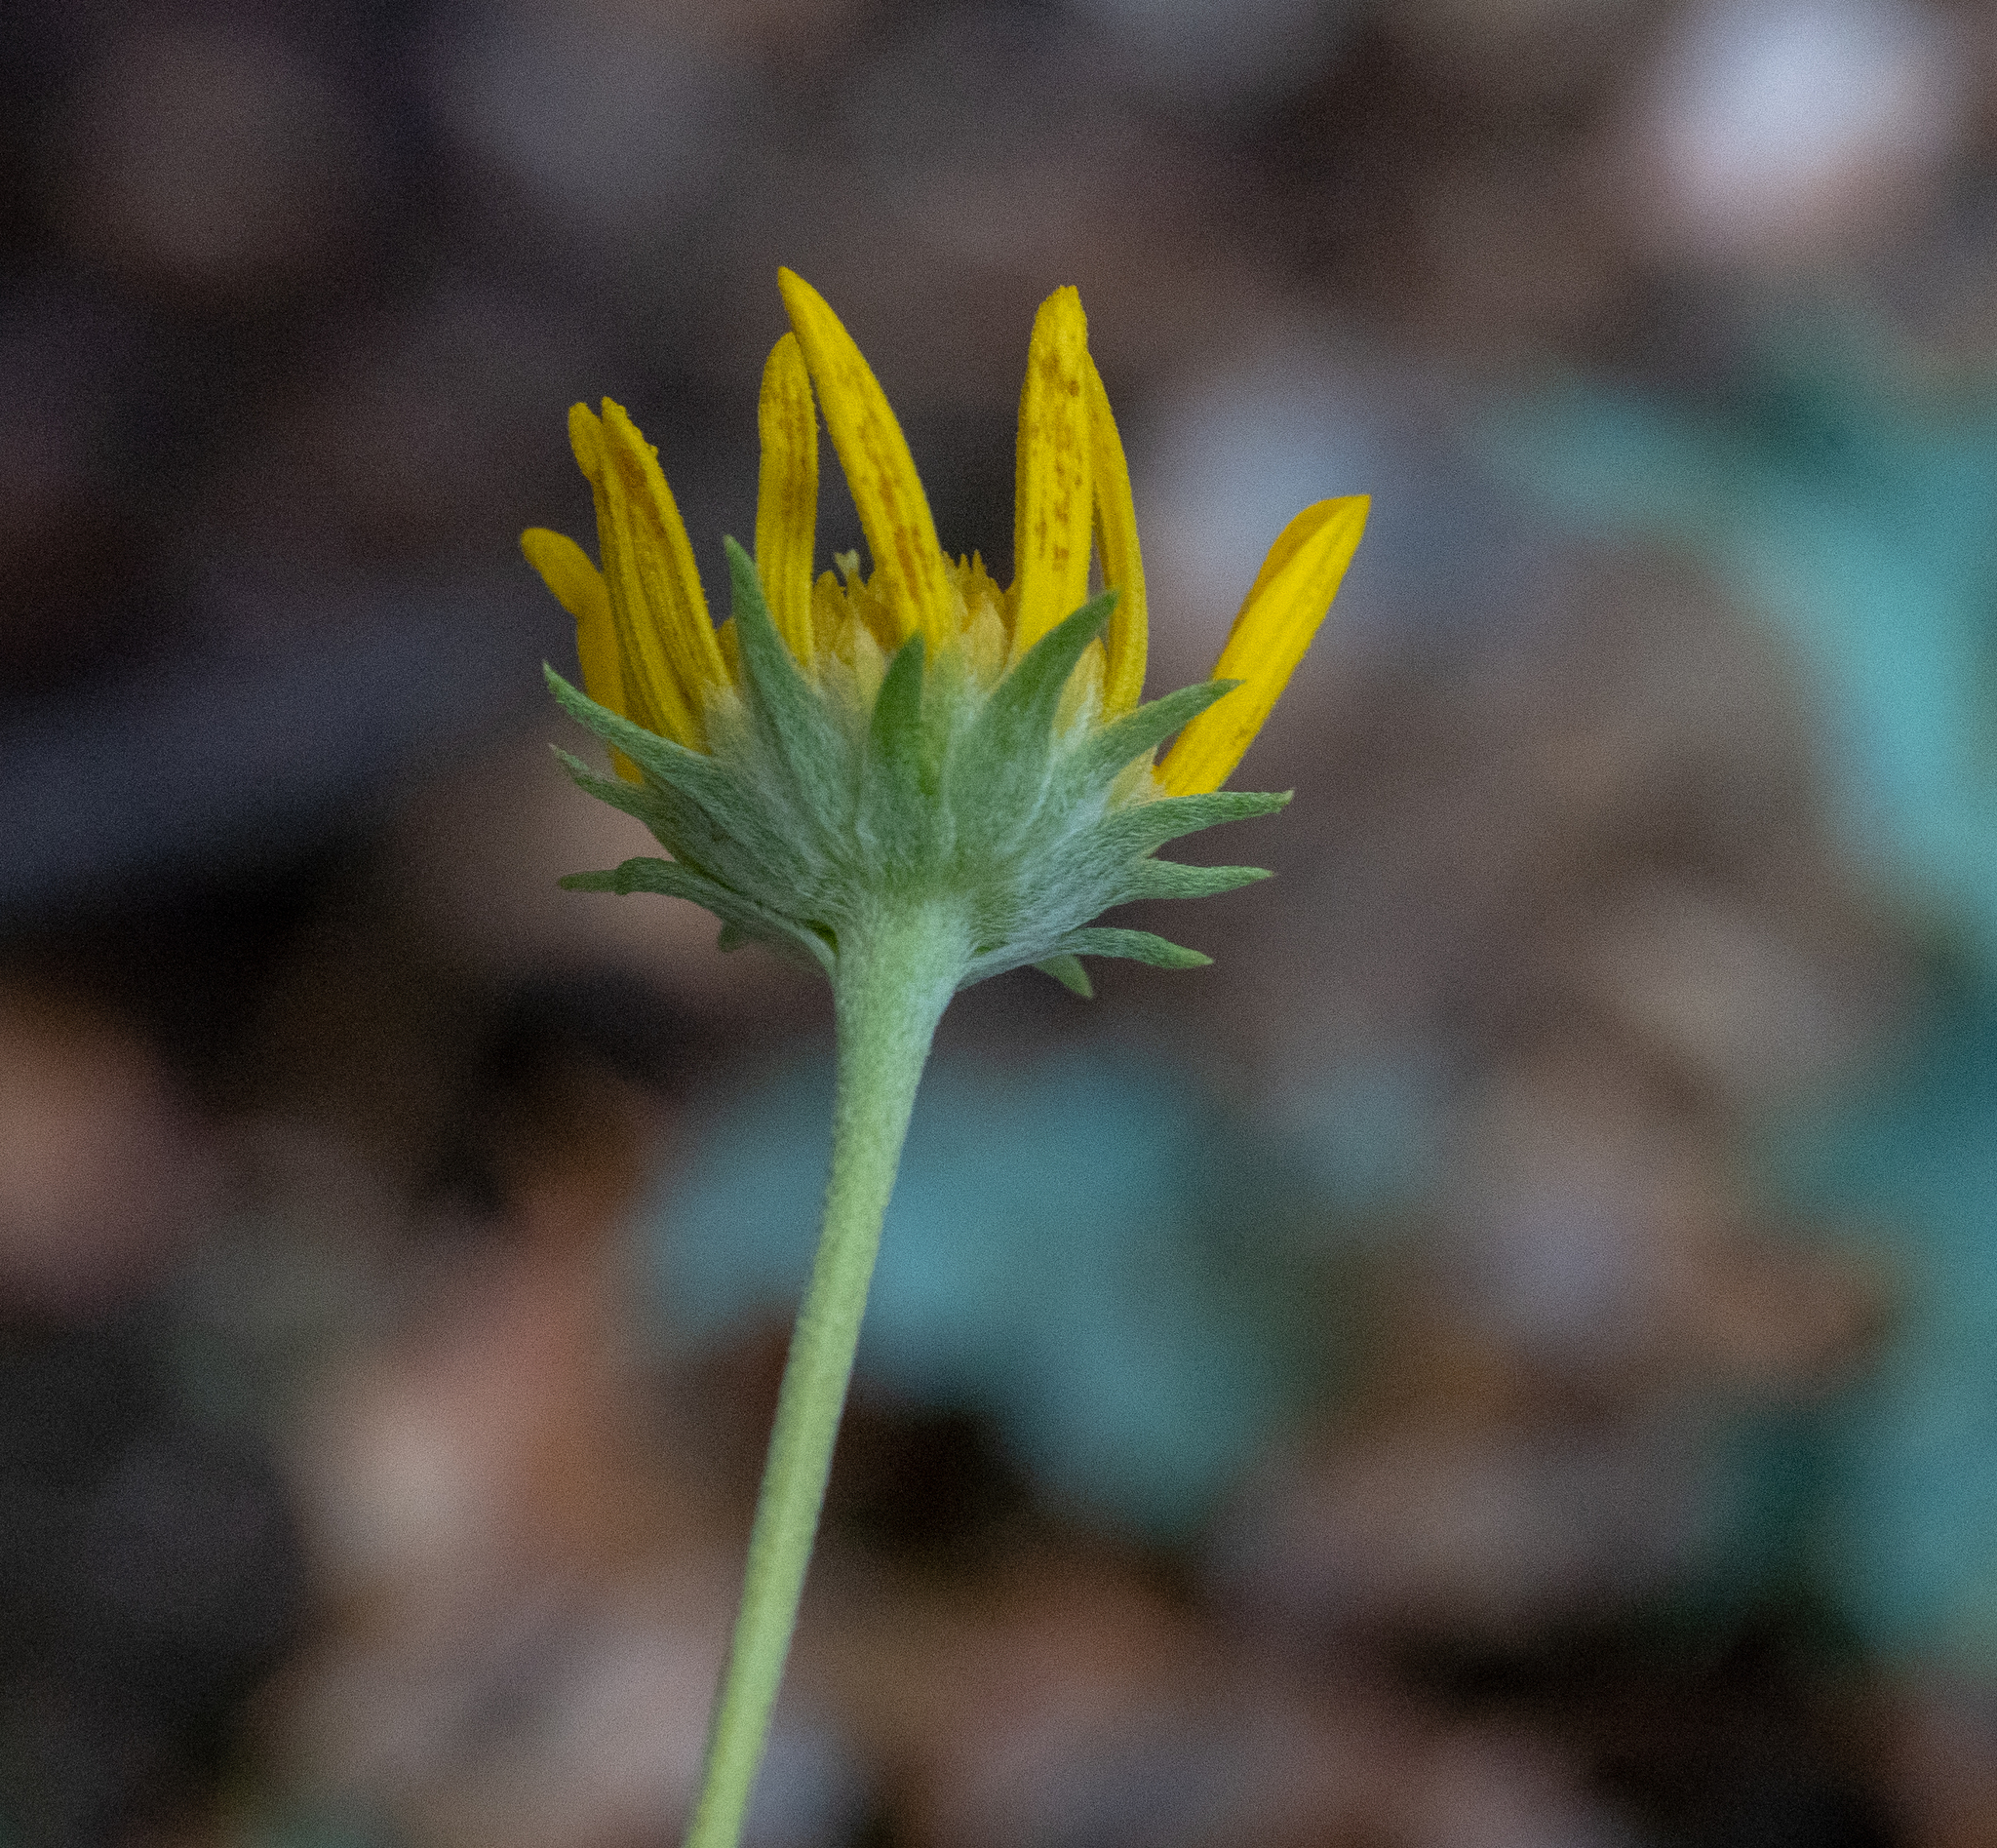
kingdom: Plantae
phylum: Tracheophyta
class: Magnoliopsida
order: Asterales
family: Asteraceae
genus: Heliomeris
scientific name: Heliomeris multiflora
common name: Showy goldeneye
